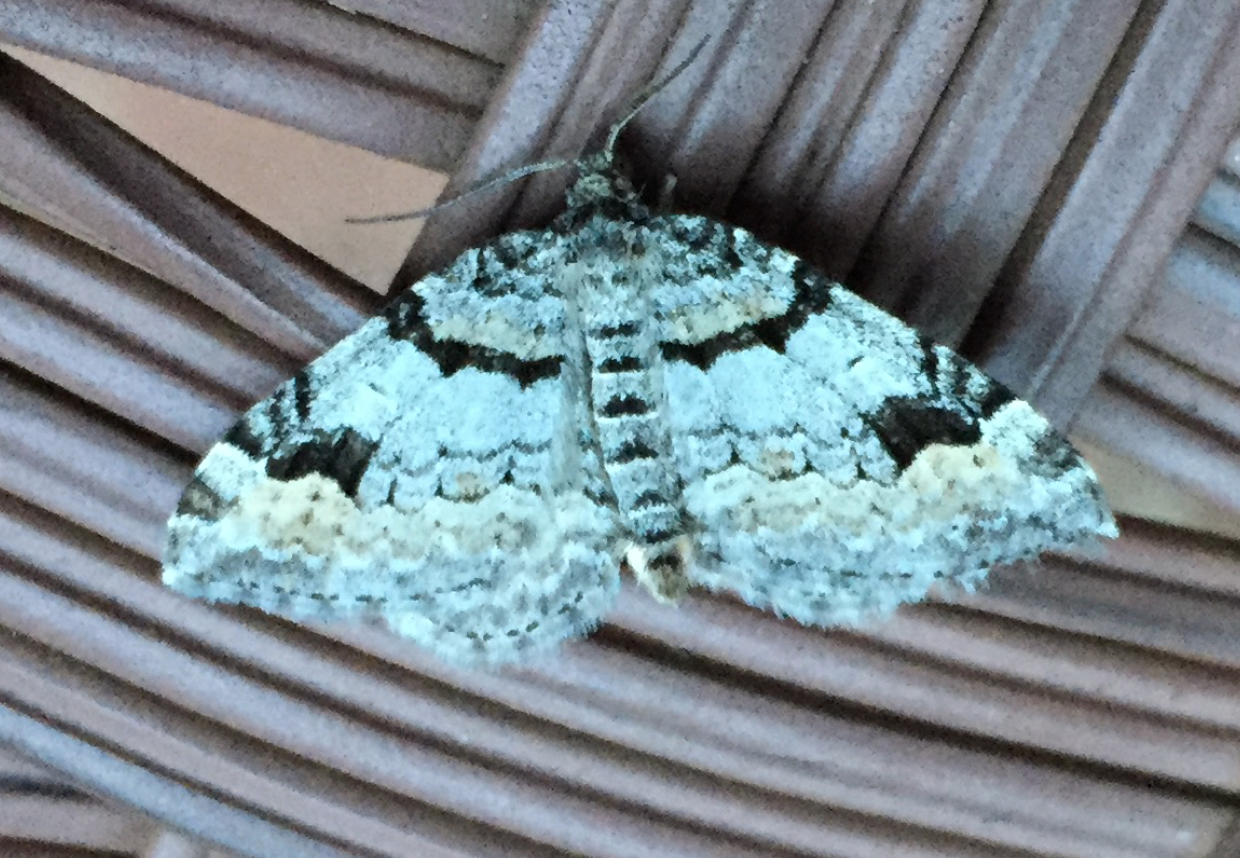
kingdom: Animalia
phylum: Arthropoda
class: Insecta
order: Lepidoptera
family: Geometridae
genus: Xanthorhoe
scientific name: Xanthorhoe abrasaria
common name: Northern carpet
